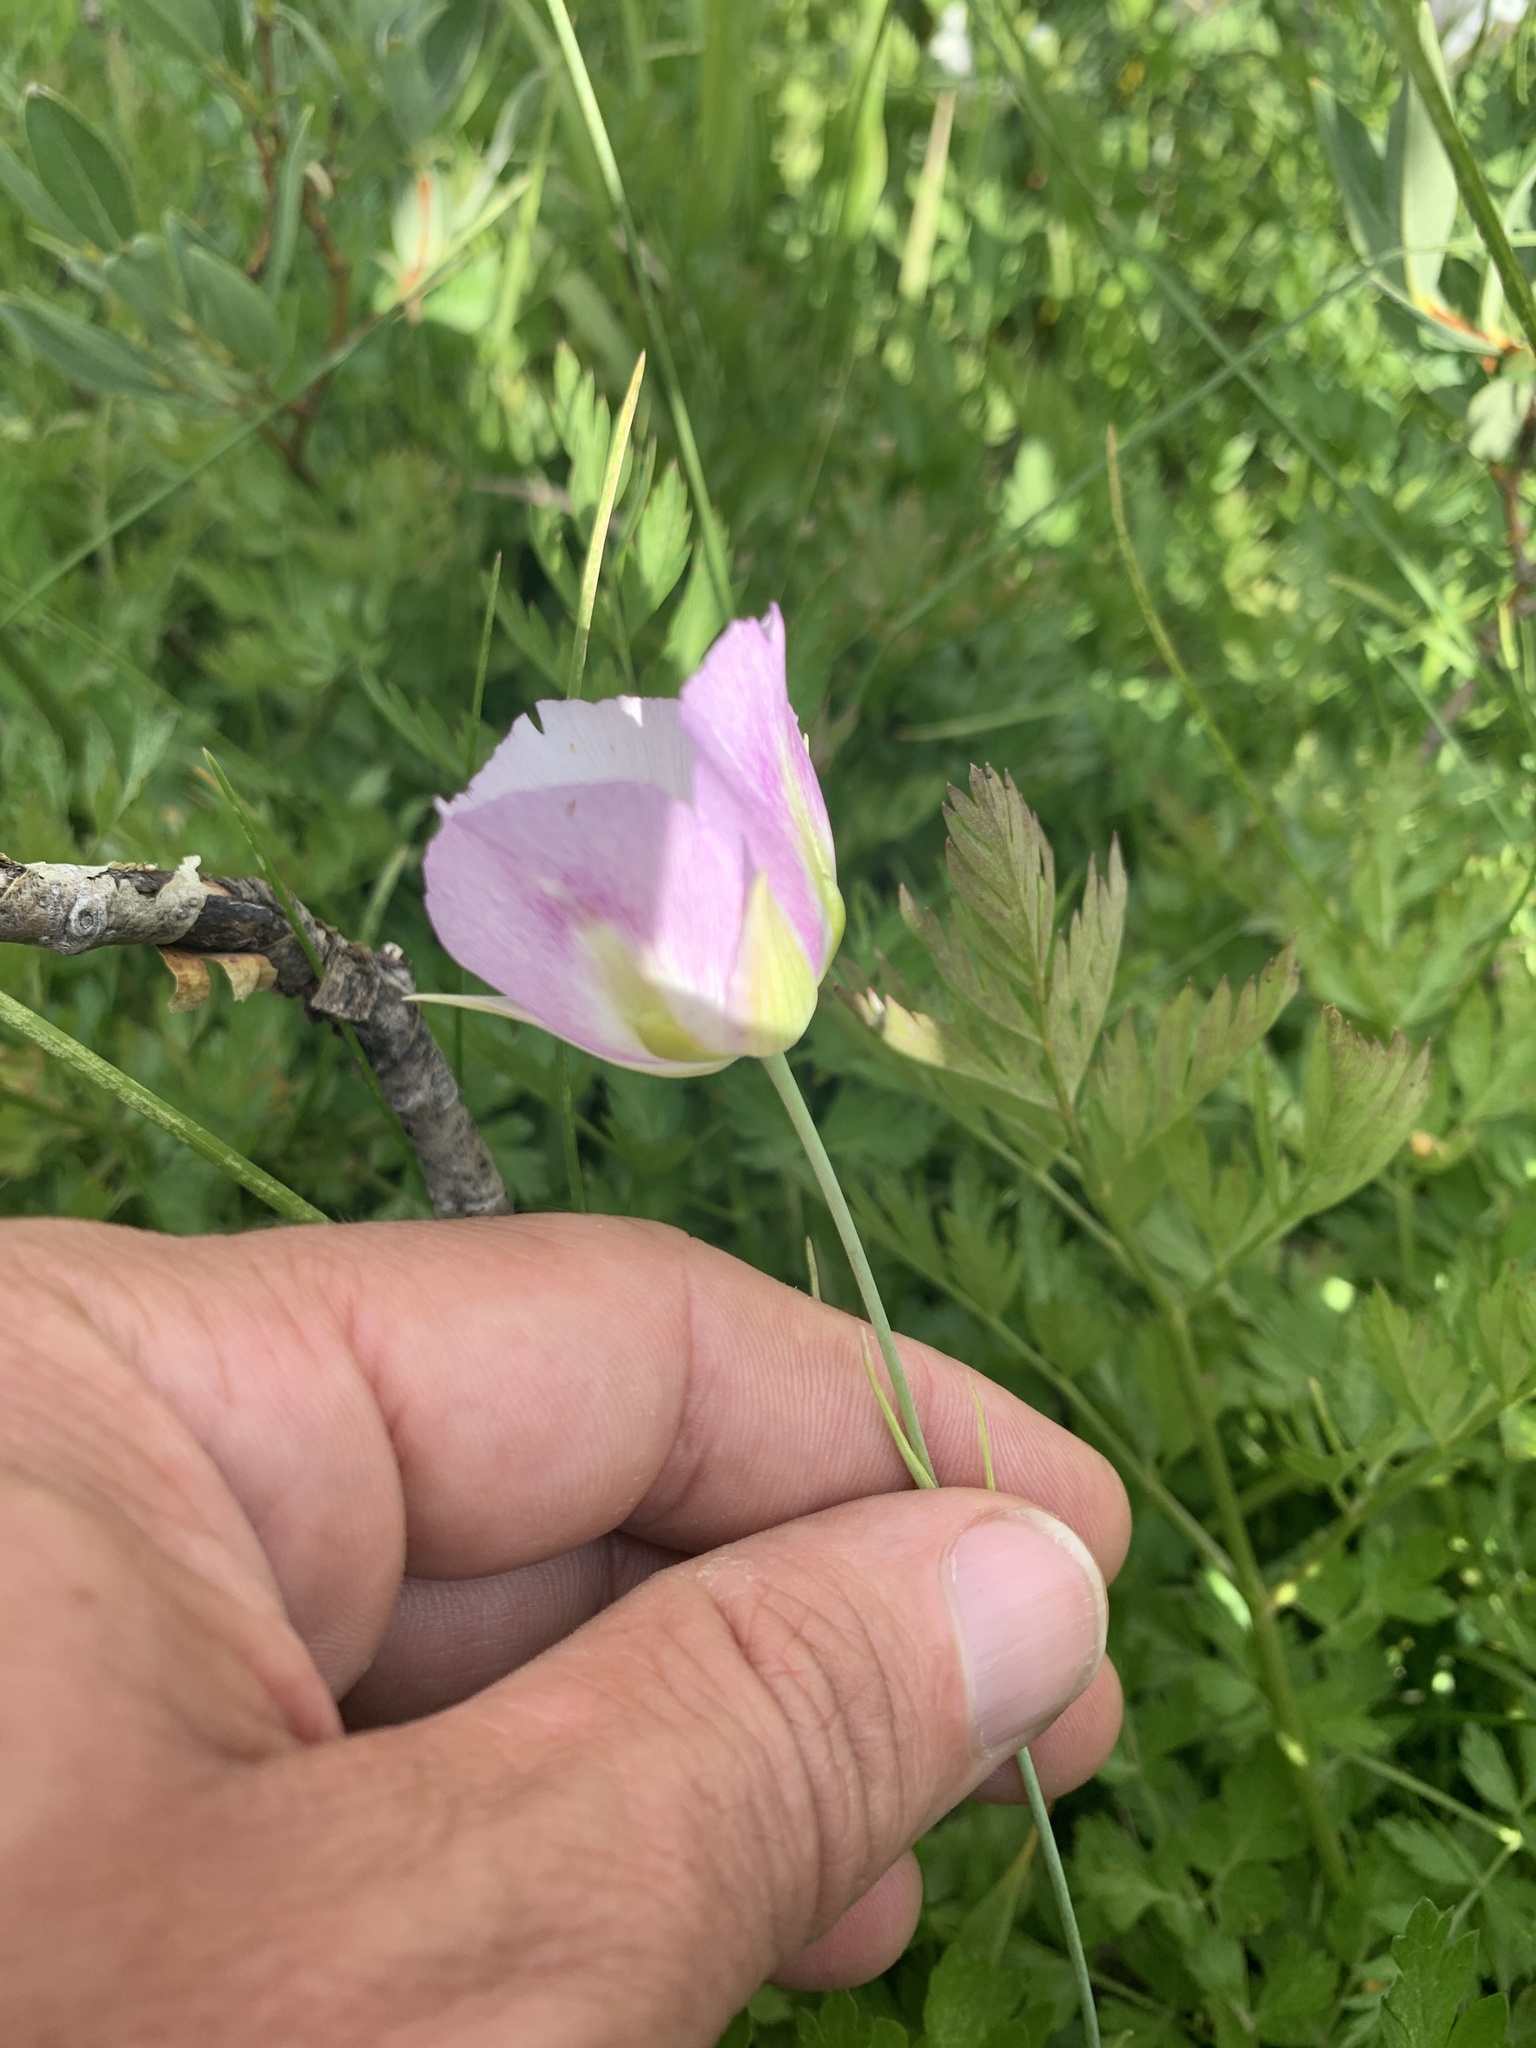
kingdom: Plantae
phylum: Tracheophyta
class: Liliopsida
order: Liliales
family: Liliaceae
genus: Calochortus
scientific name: Calochortus eurycarpus
